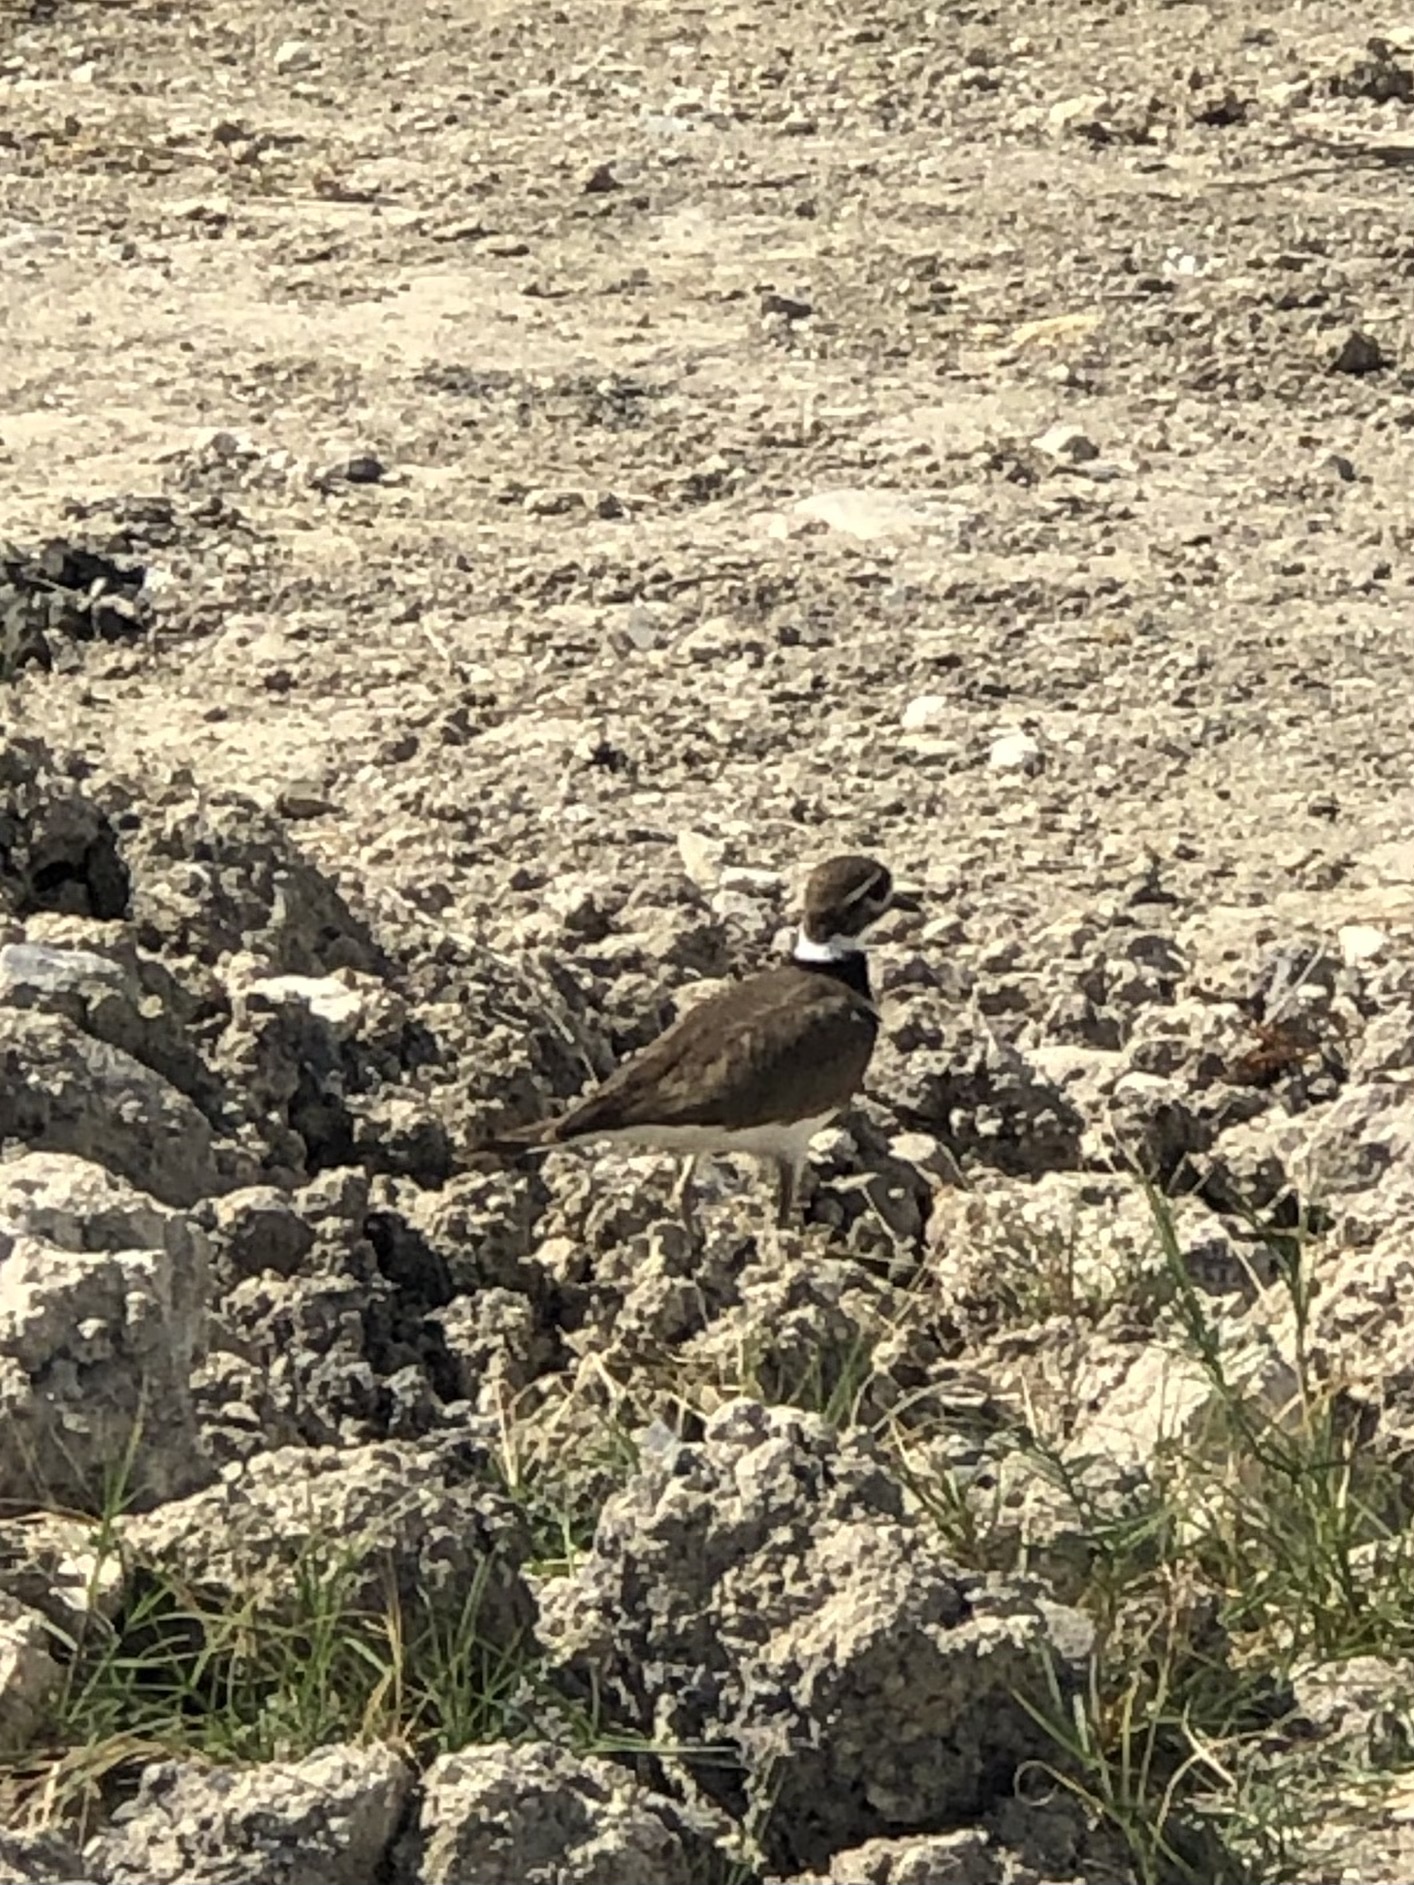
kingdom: Animalia
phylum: Chordata
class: Aves
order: Charadriiformes
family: Charadriidae
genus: Charadrius
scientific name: Charadrius vociferus
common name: Killdeer
